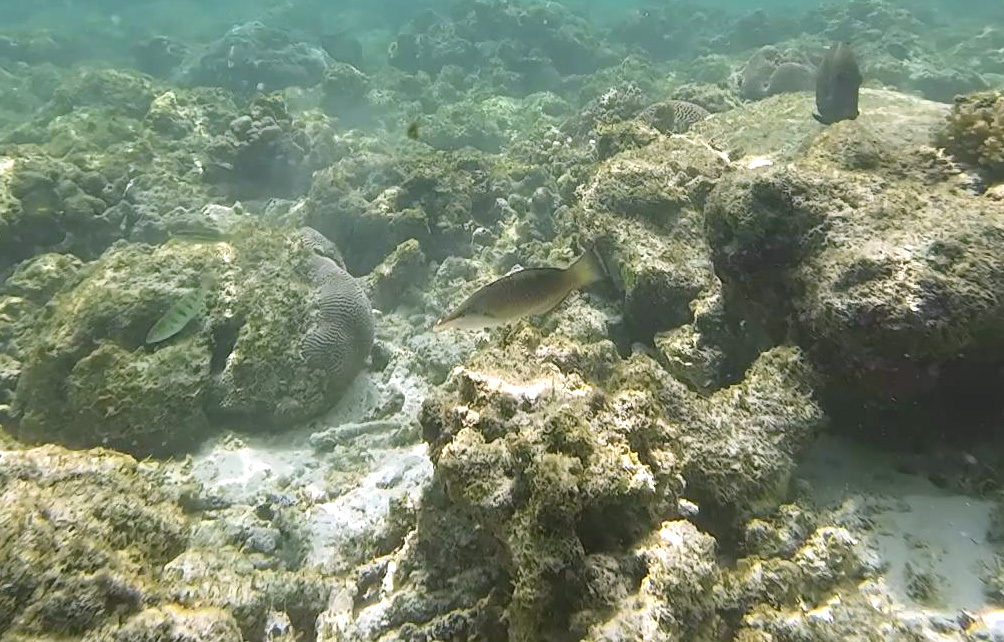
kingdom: Animalia
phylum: Chordata
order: Perciformes
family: Labridae
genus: Gomphosus
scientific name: Gomphosus caeruleus
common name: Bird wrasse
